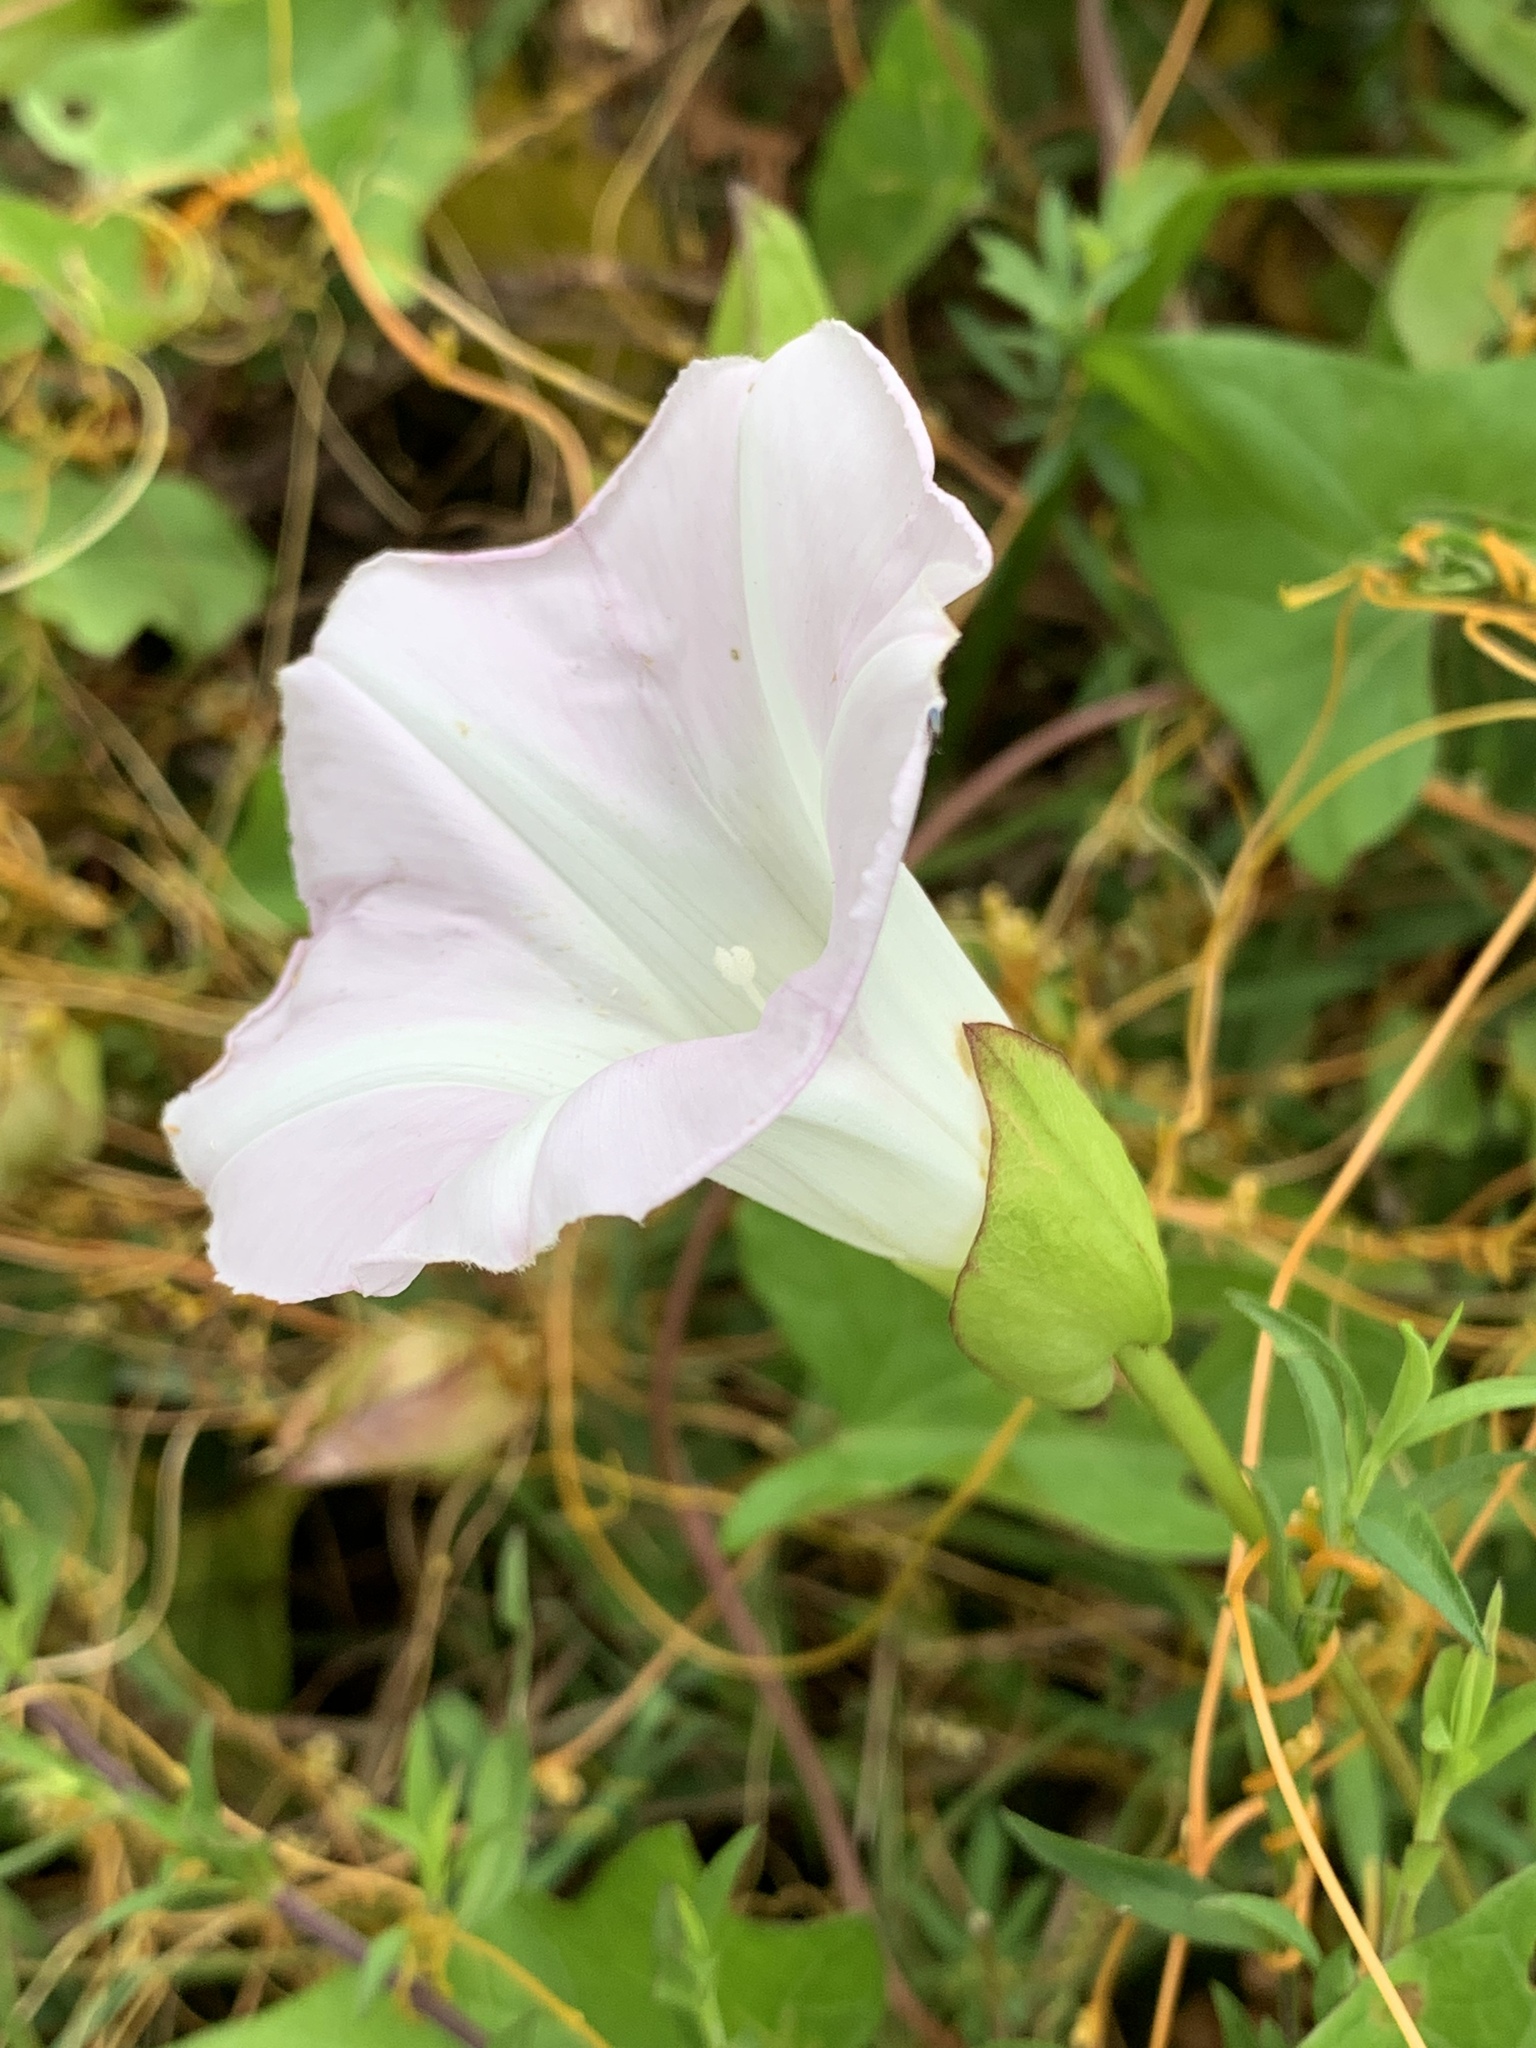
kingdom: Plantae
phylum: Tracheophyta
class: Magnoliopsida
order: Solanales
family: Convolvulaceae
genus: Calystegia
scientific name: Calystegia sepium
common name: Hedge bindweed
